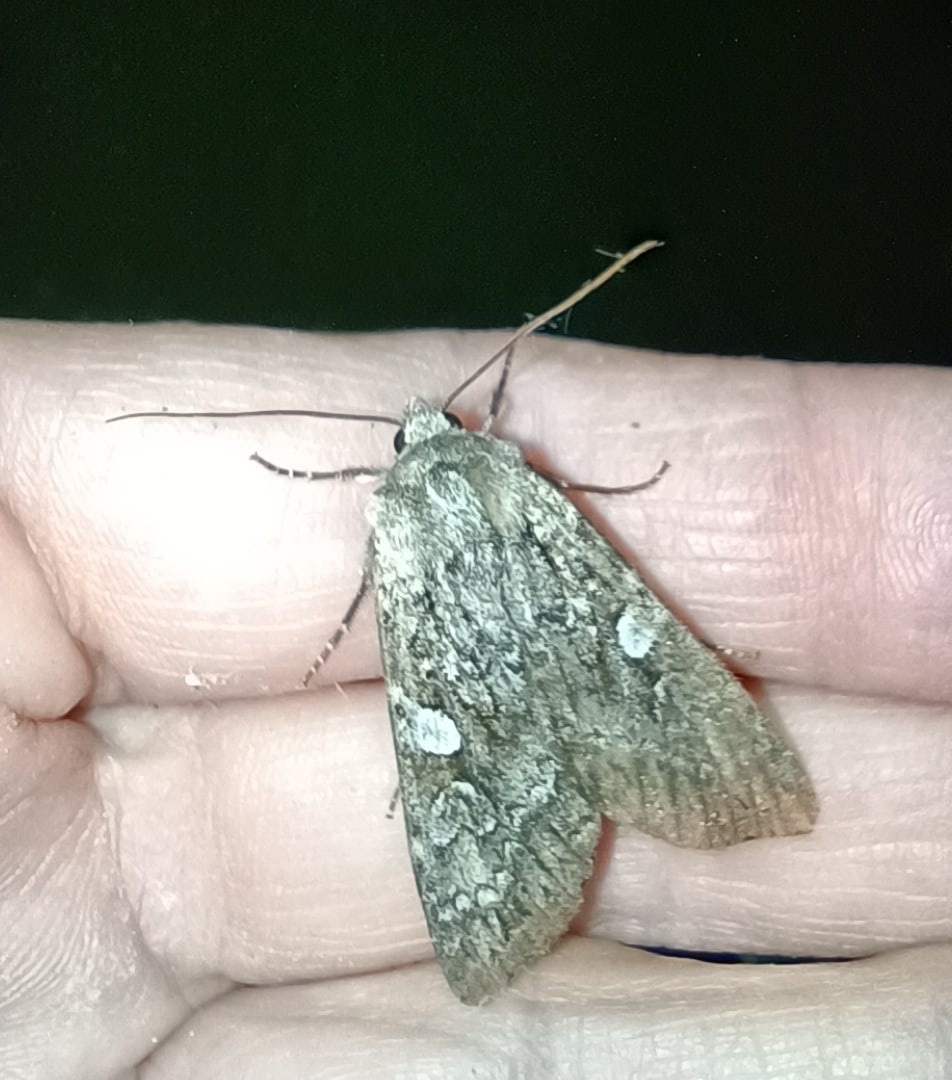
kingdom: Animalia
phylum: Arthropoda
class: Insecta
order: Lepidoptera
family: Noctuidae
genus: Eurois
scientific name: Eurois occulta
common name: Great brocade
